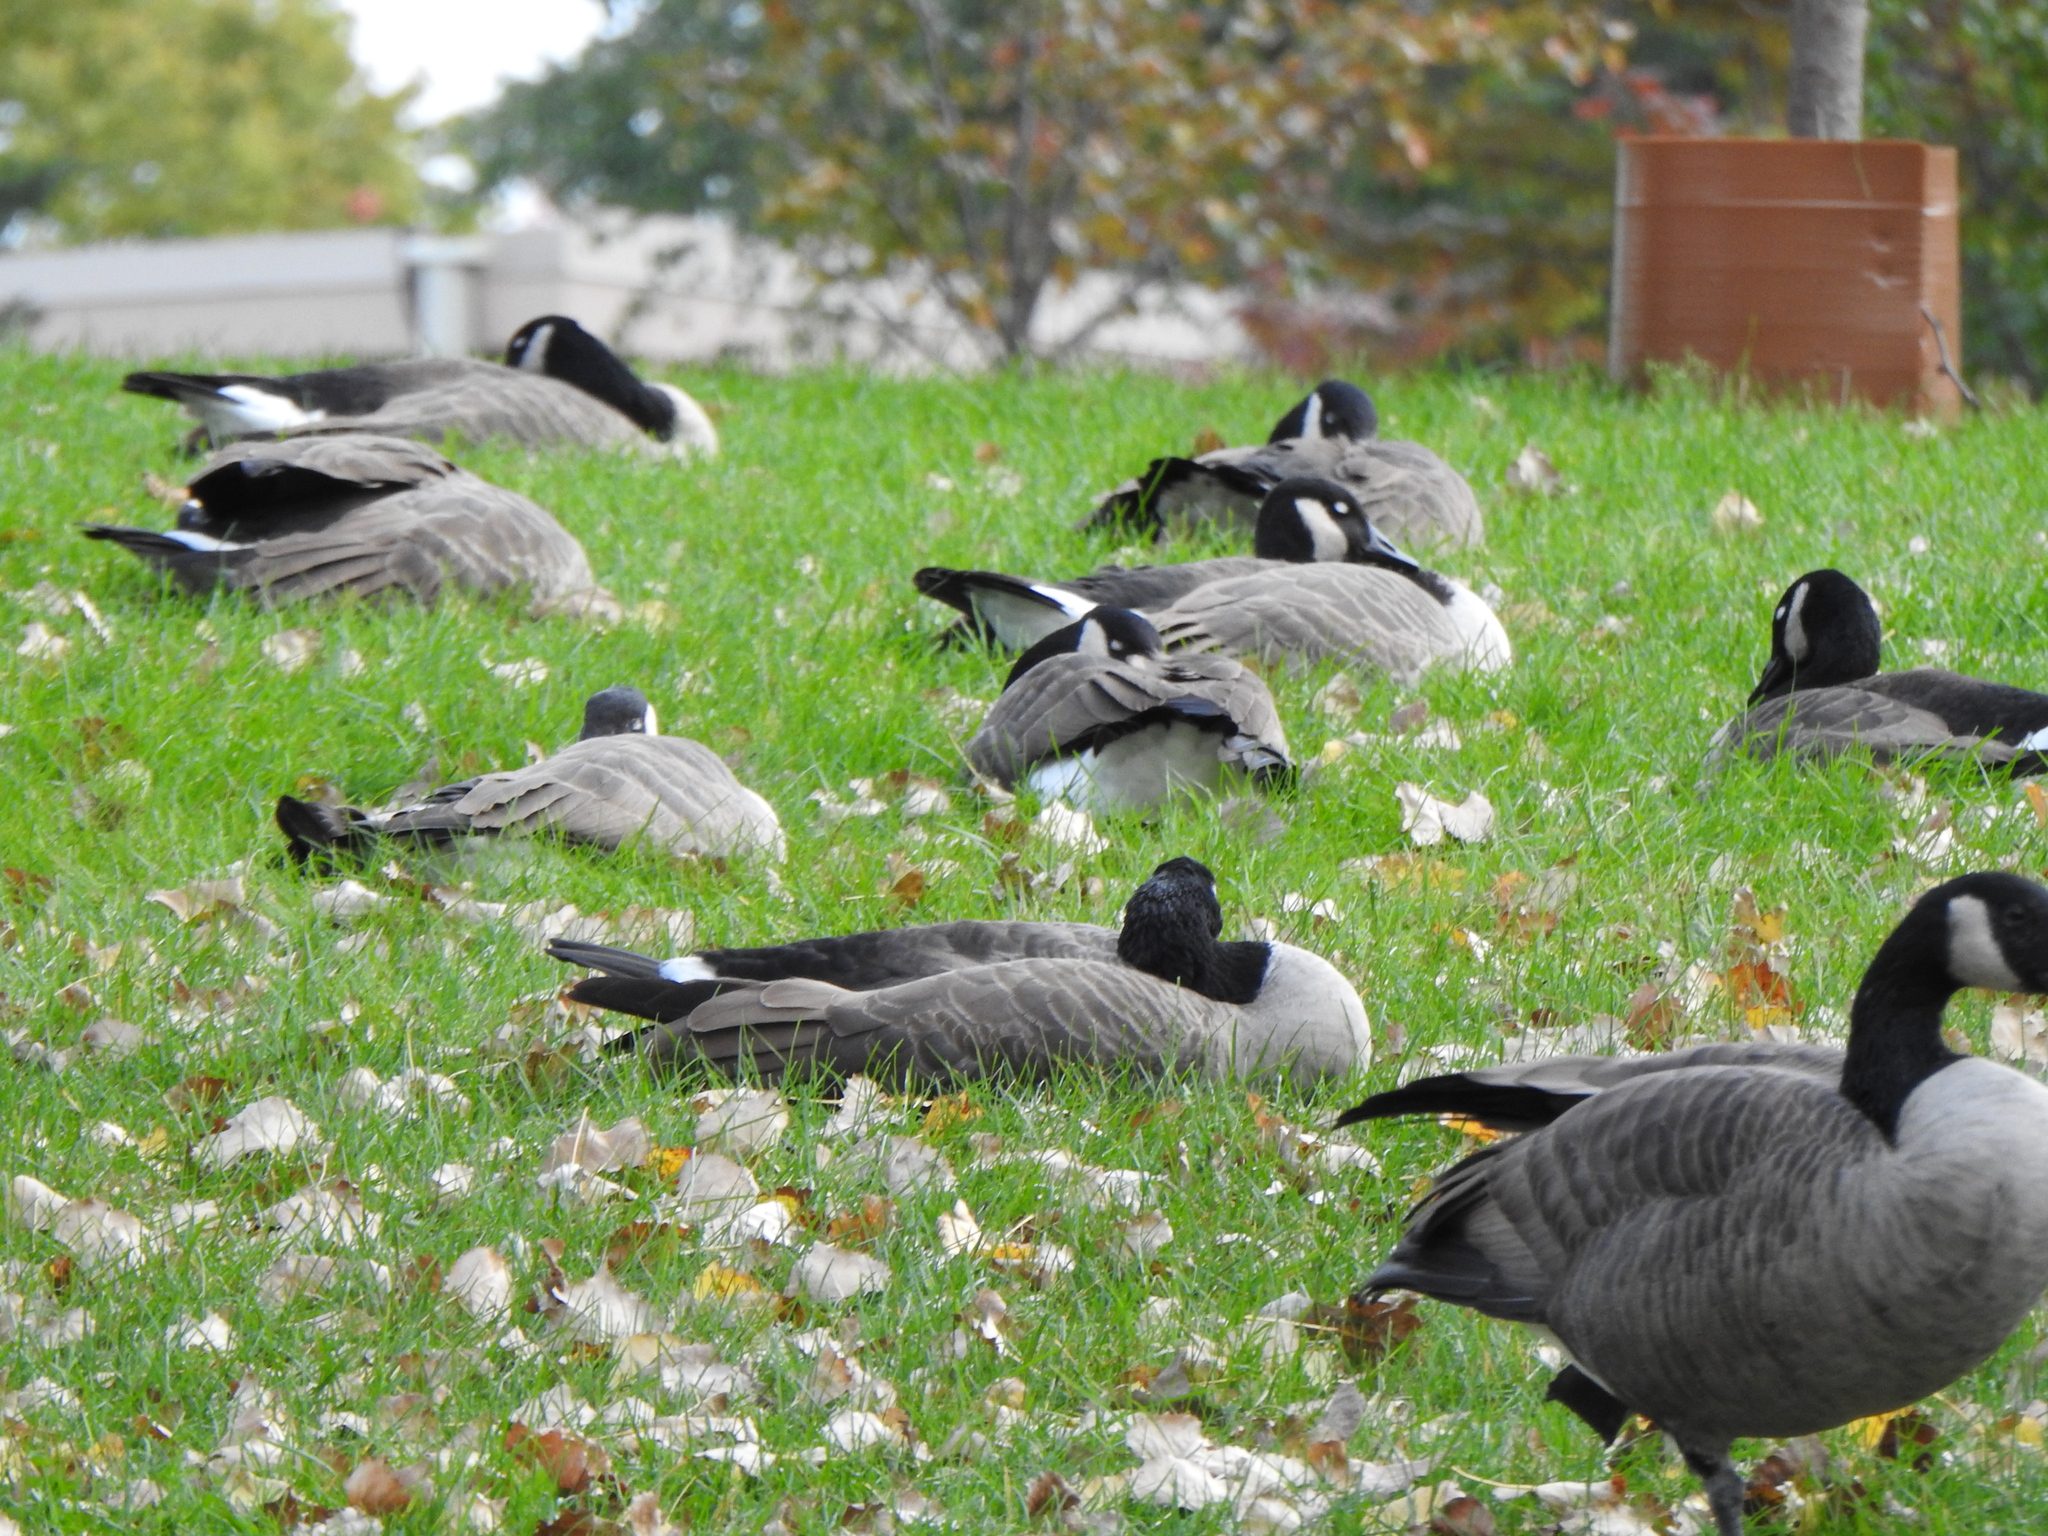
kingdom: Animalia
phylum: Chordata
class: Aves
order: Anseriformes
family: Anatidae
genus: Branta
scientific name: Branta canadensis
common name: Canada goose
